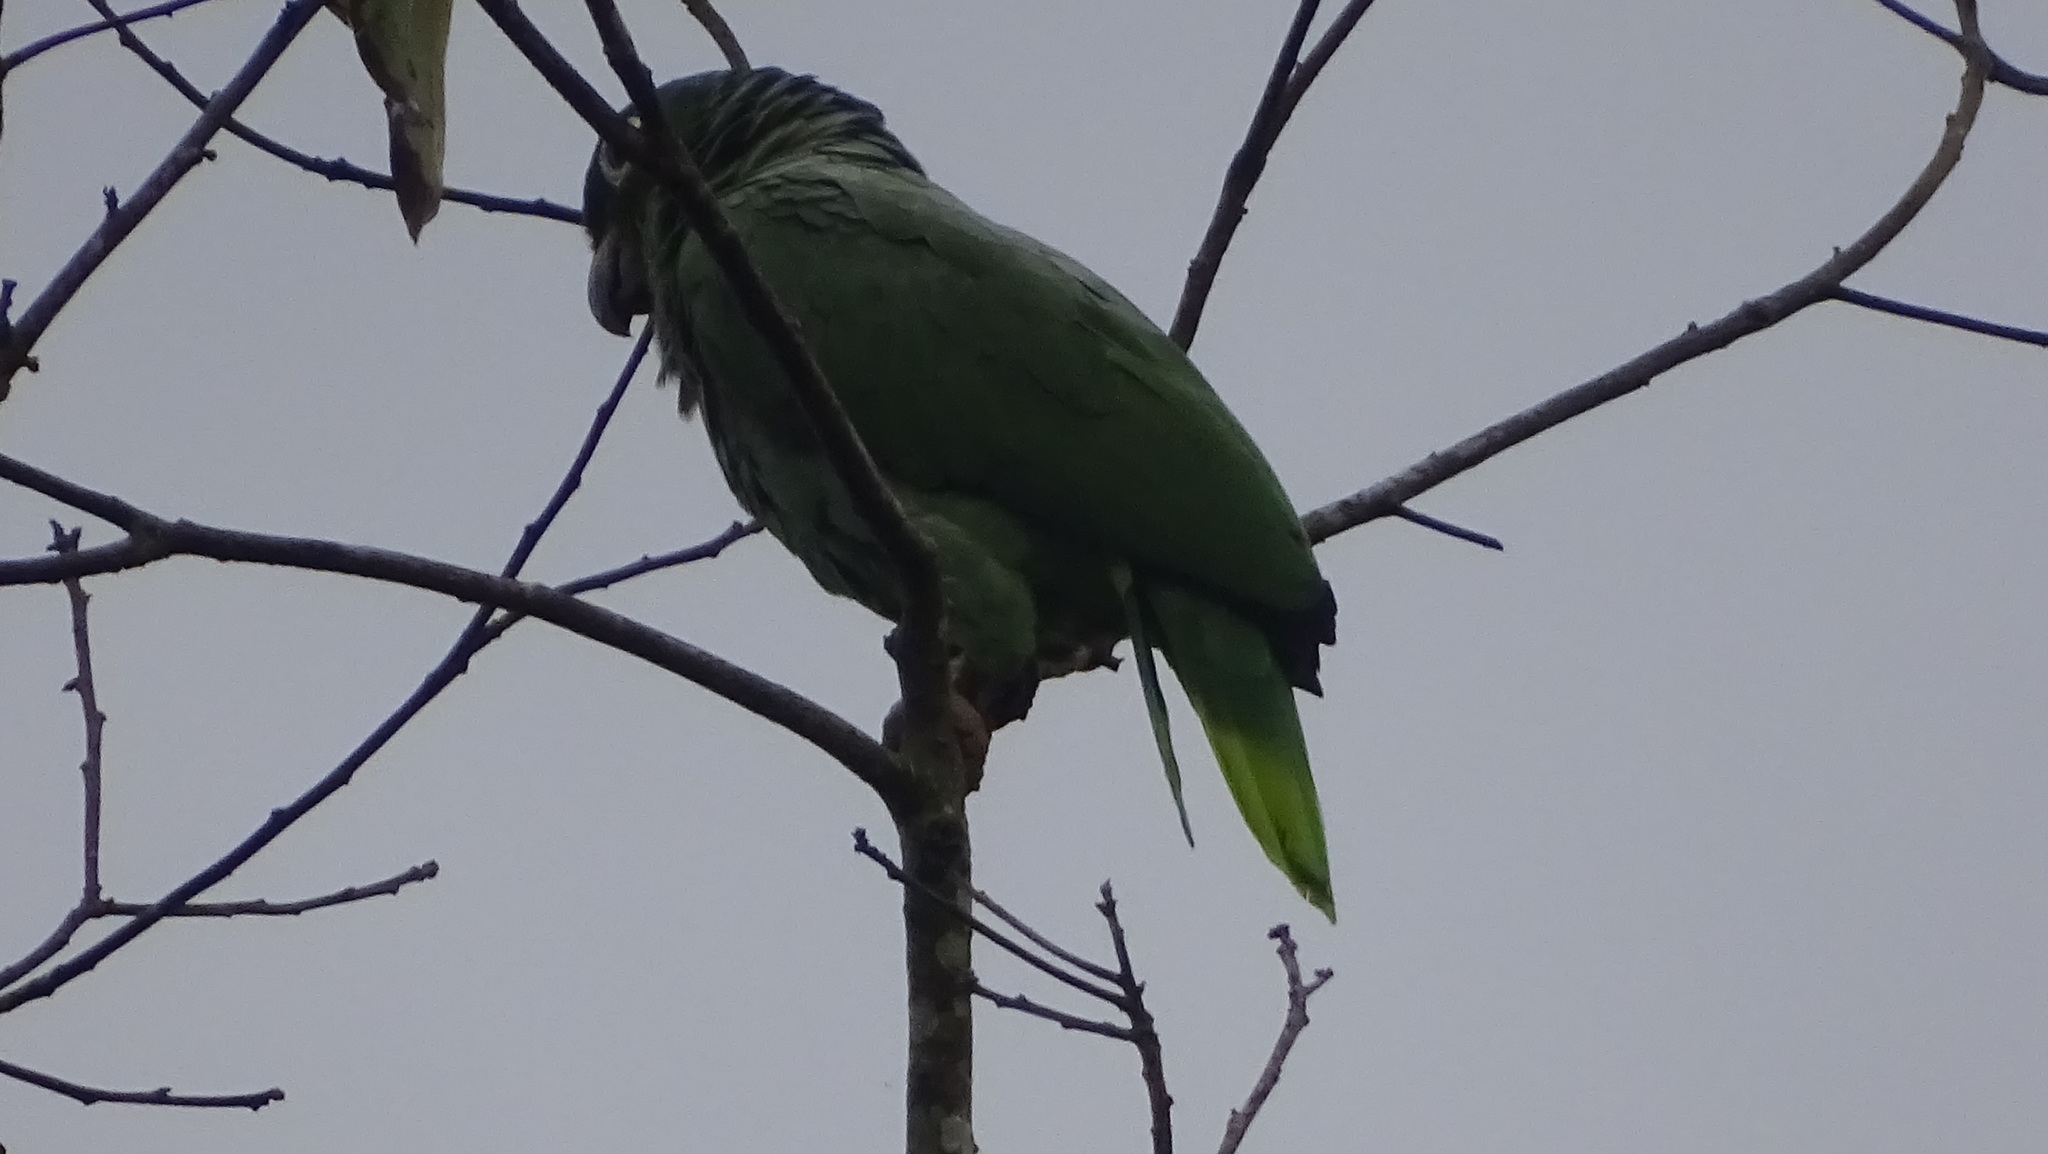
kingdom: Animalia
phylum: Chordata
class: Aves
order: Psittaciformes
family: Psittacidae
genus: Amazona
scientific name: Amazona farinosa
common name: Mealy parrot
